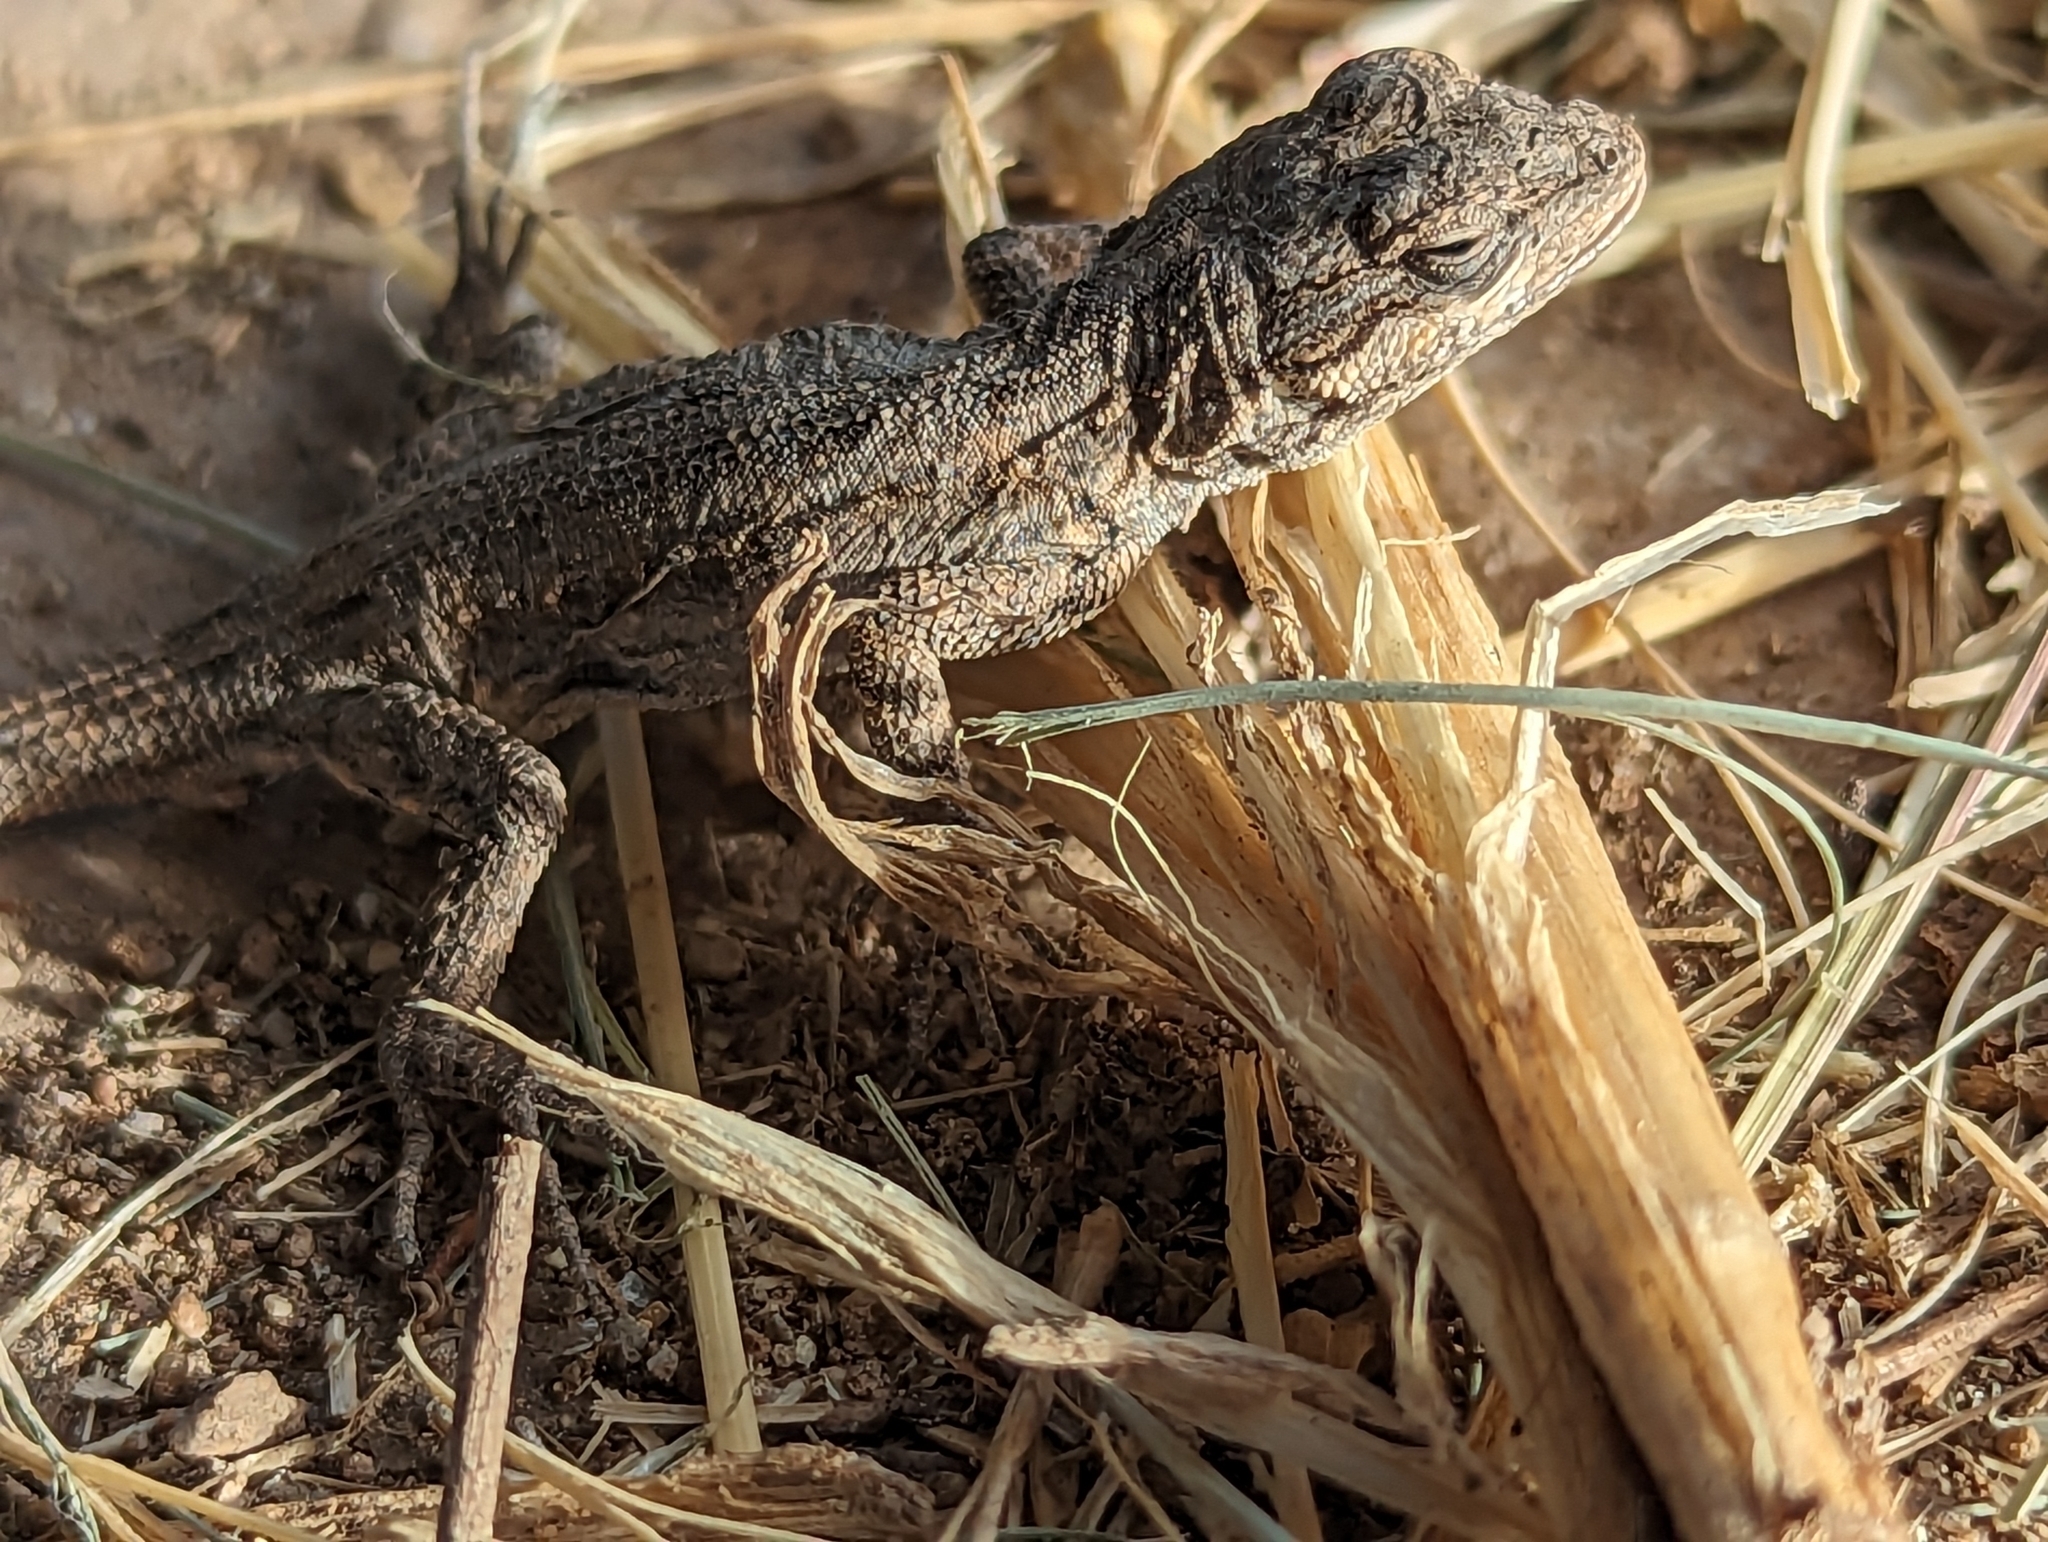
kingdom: Animalia
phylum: Chordata
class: Squamata
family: Phrynosomatidae
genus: Urosaurus
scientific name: Urosaurus ornatus
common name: Ornate tree lizard
